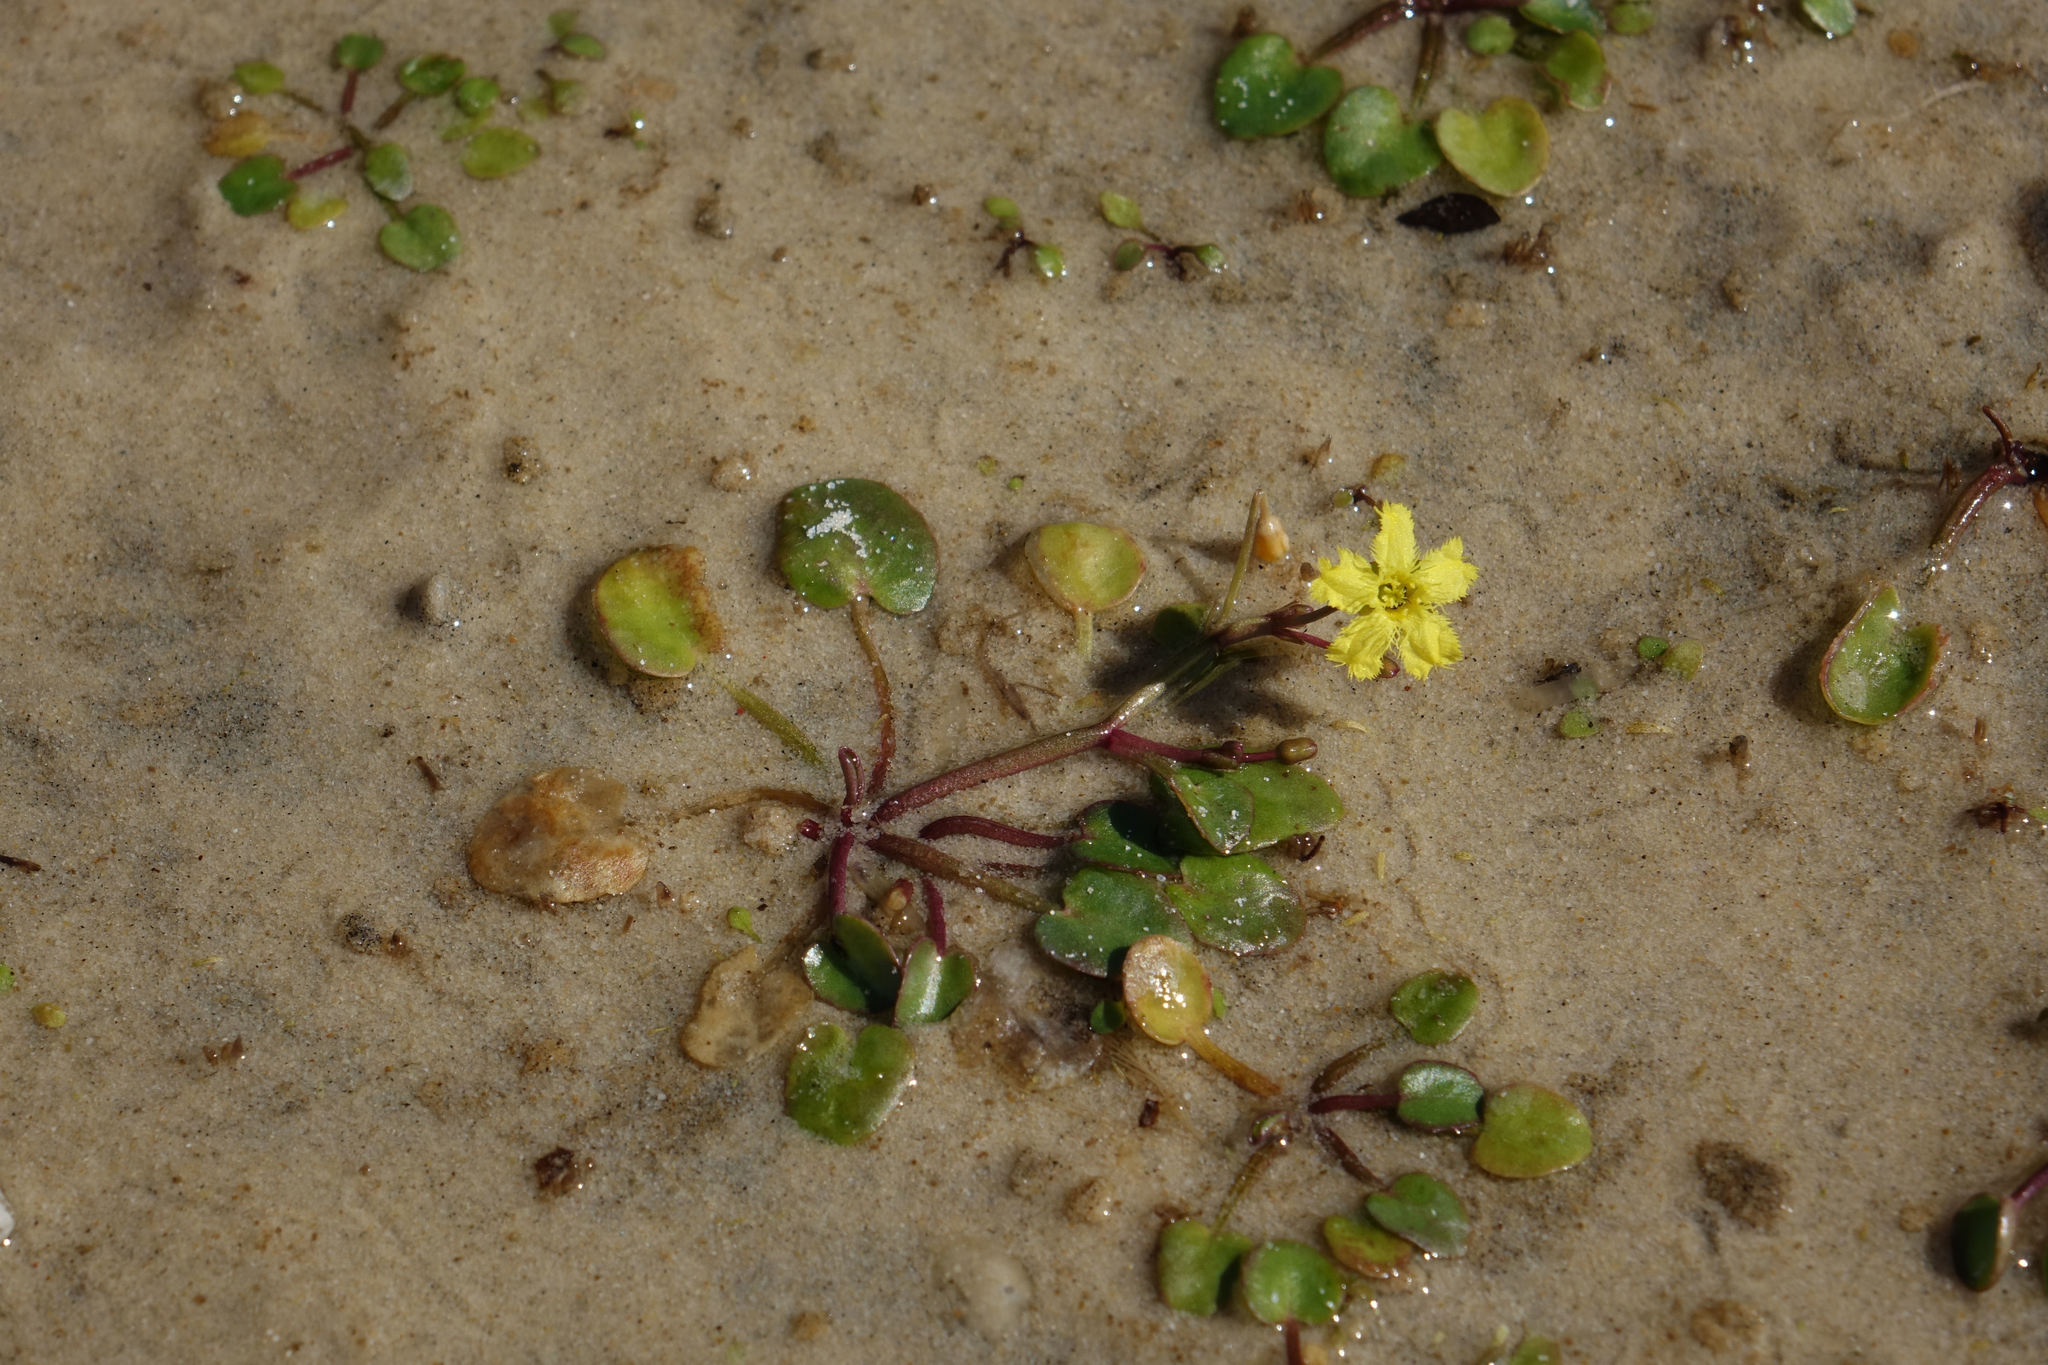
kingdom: Plantae
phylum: Tracheophyta
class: Magnoliopsida
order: Asterales
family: Menyanthaceae
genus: Nymphoides
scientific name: Nymphoides exiliflora
